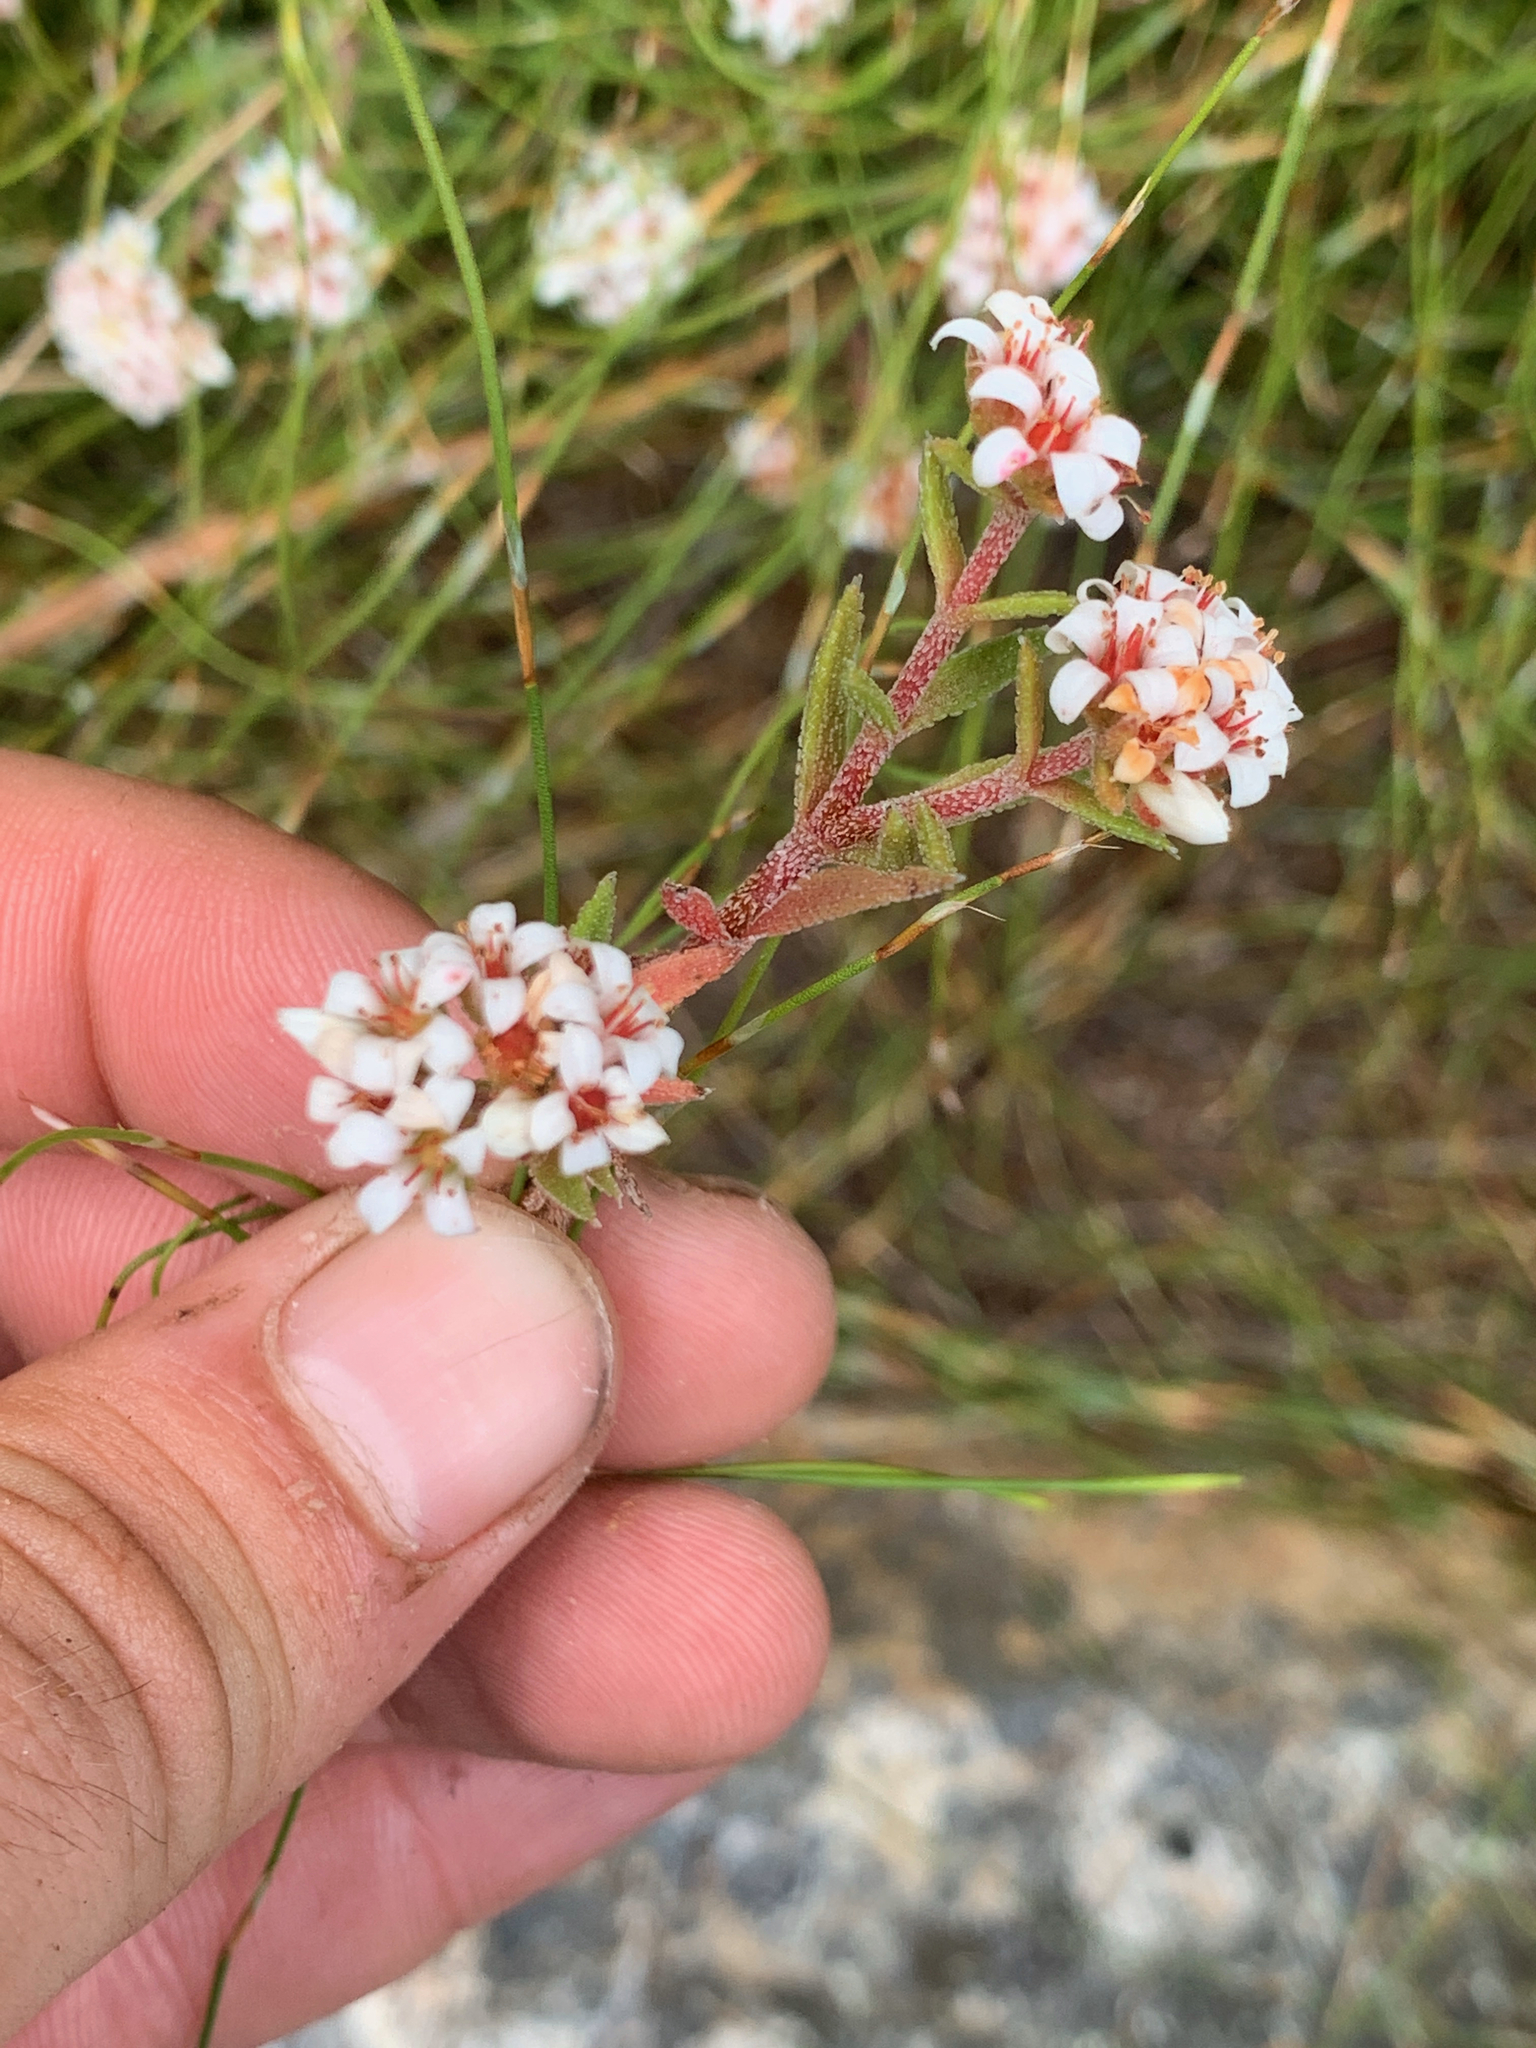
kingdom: Plantae
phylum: Tracheophyta
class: Magnoliopsida
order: Saxifragales
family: Crassulaceae
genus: Crassula
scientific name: Crassula pruinosa
